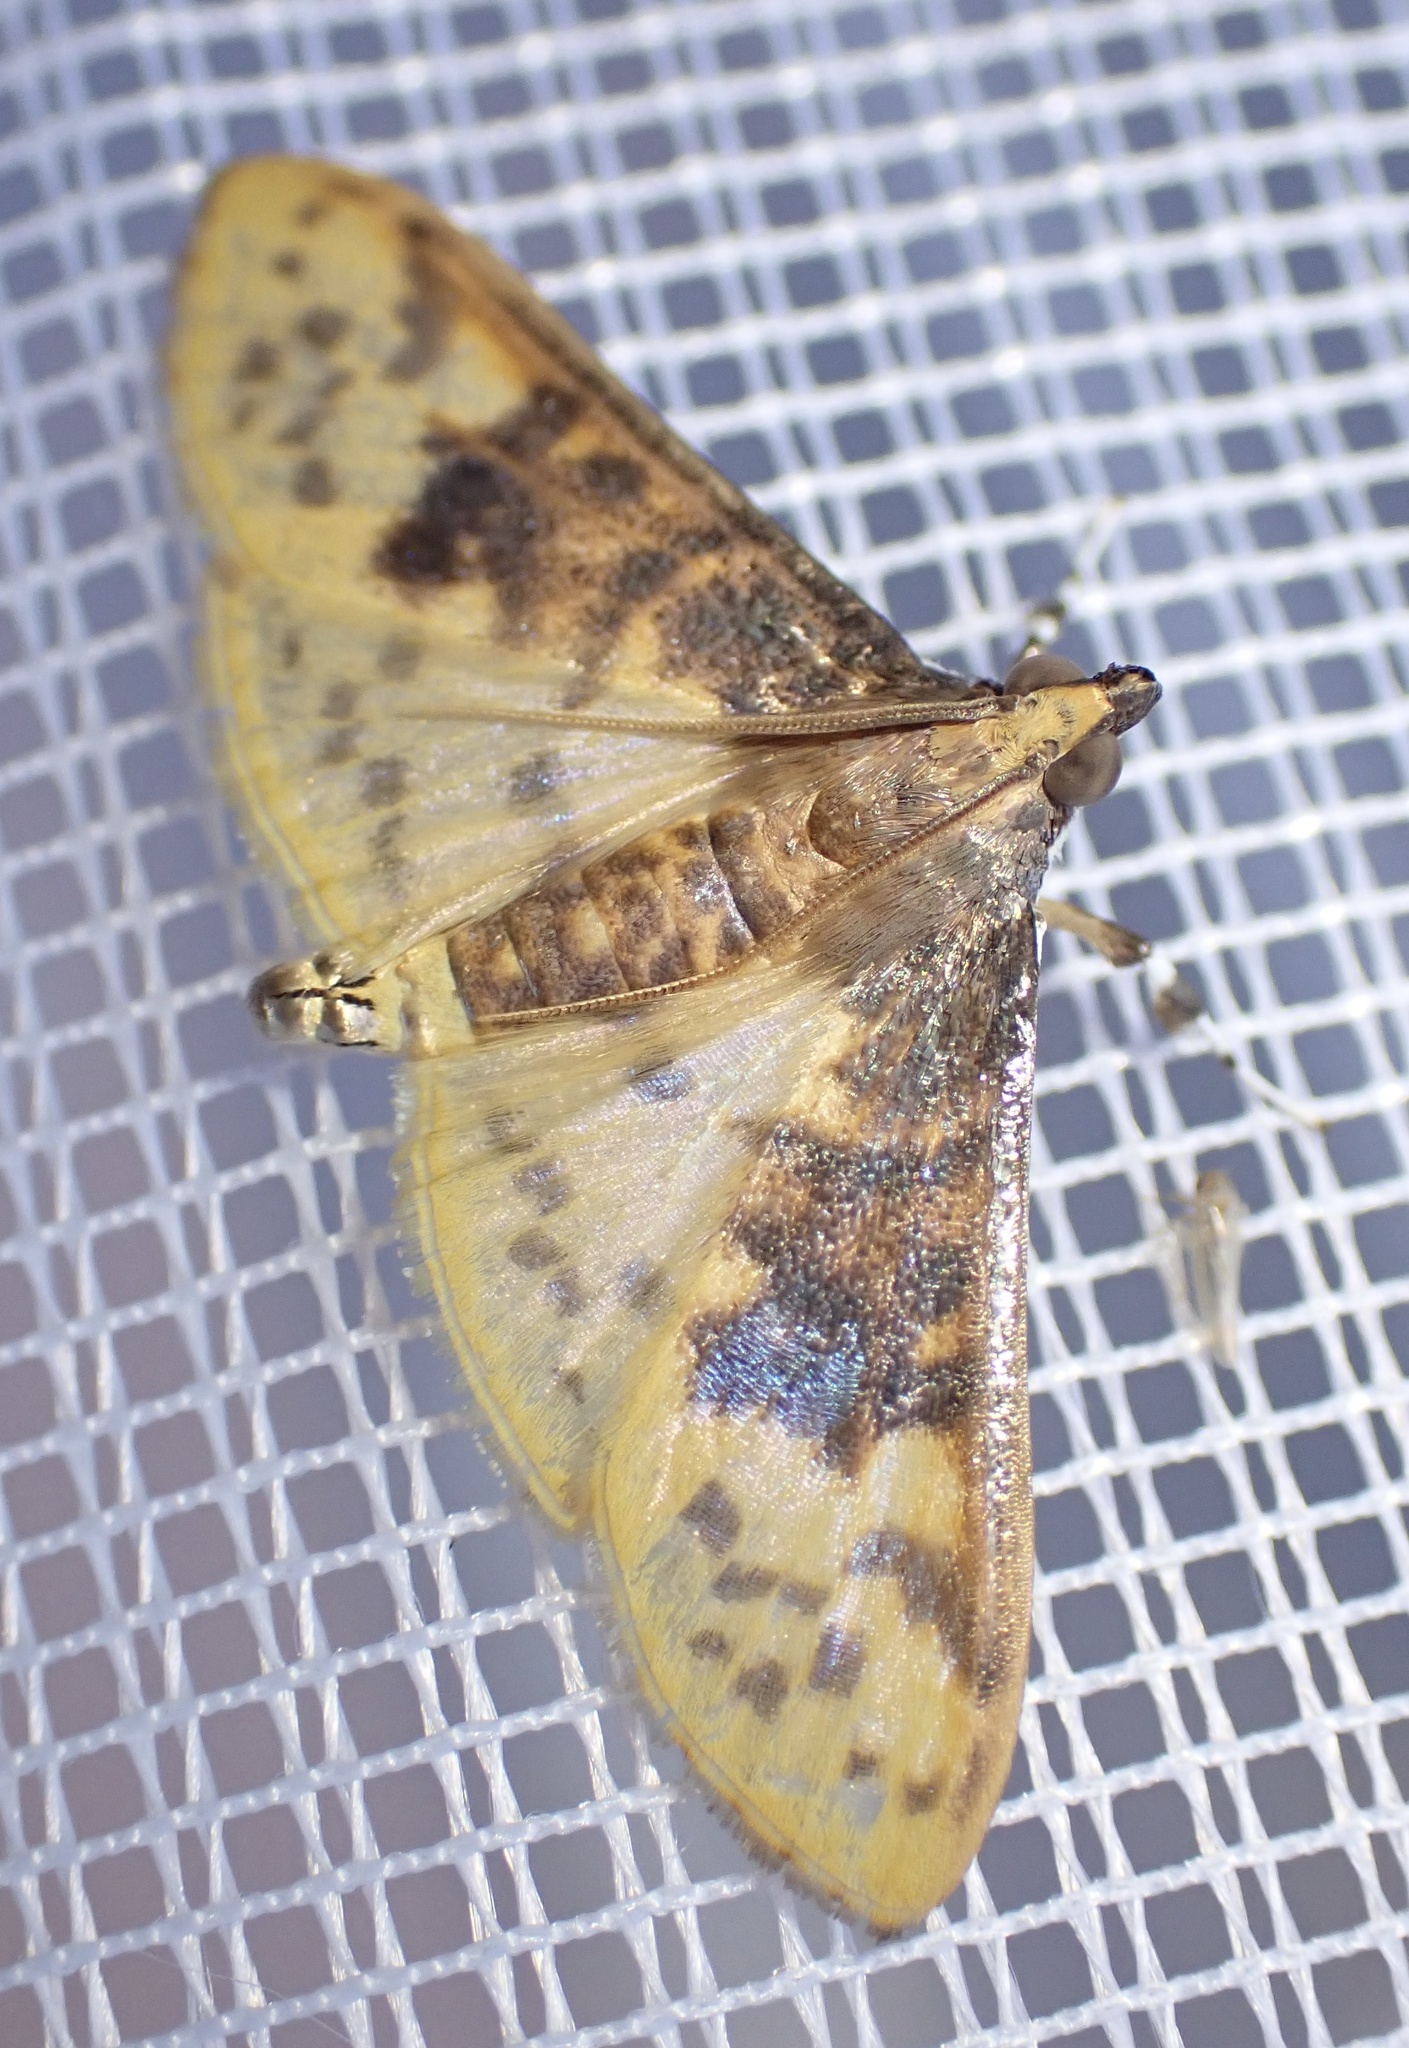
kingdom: Animalia
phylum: Arthropoda
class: Insecta
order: Lepidoptera
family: Crambidae
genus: Ghesquierellana
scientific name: Ghesquierellana hirtusalis
